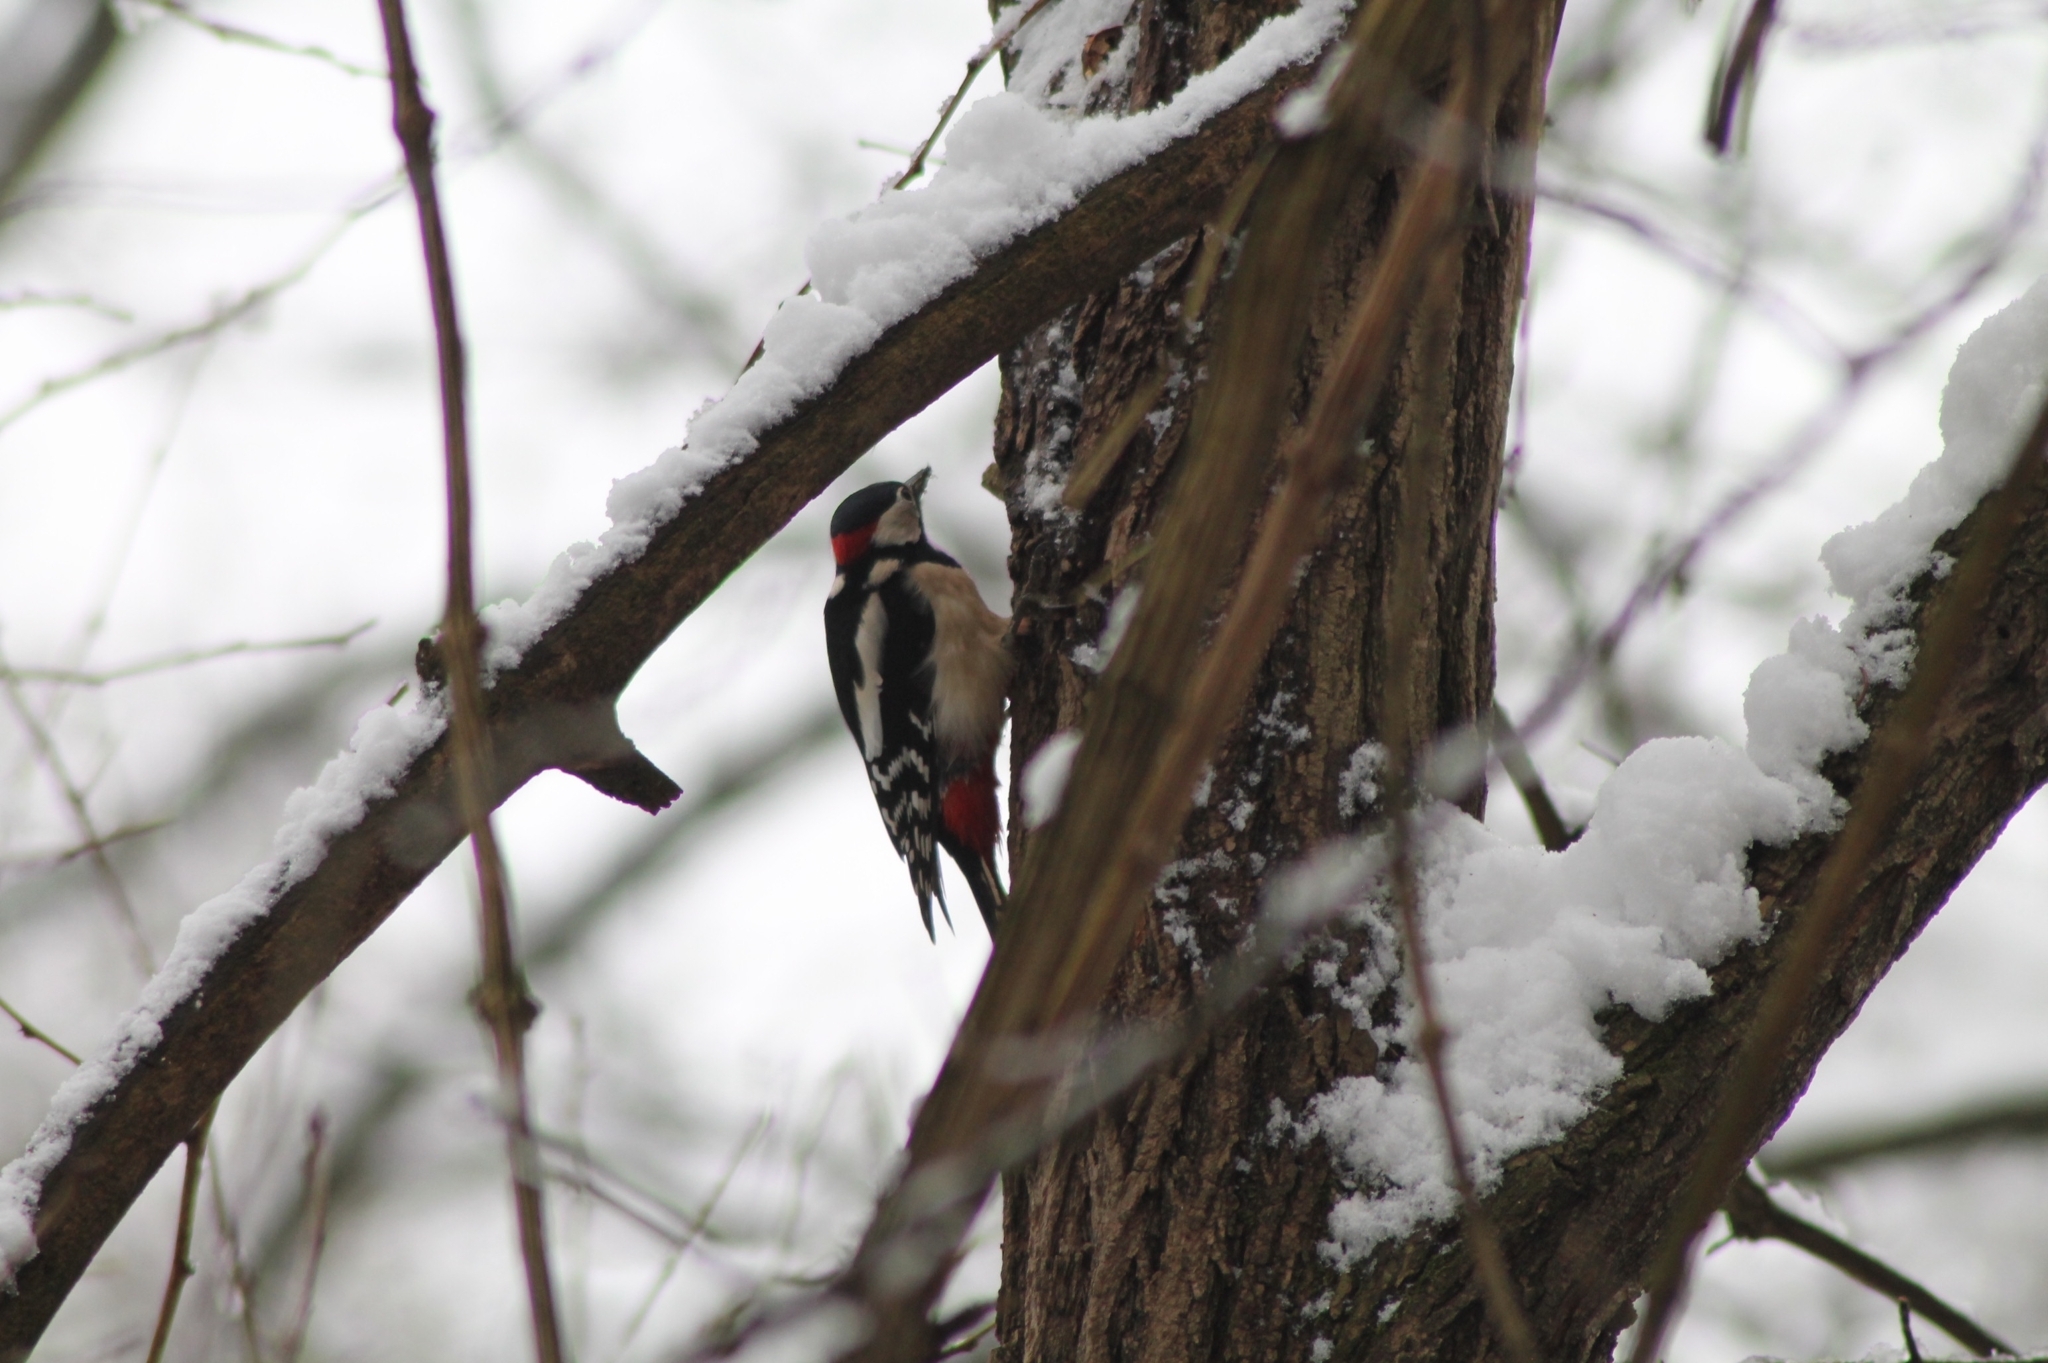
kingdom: Animalia
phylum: Chordata
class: Aves
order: Piciformes
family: Picidae
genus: Dendrocopos
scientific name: Dendrocopos major
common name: Great spotted woodpecker
